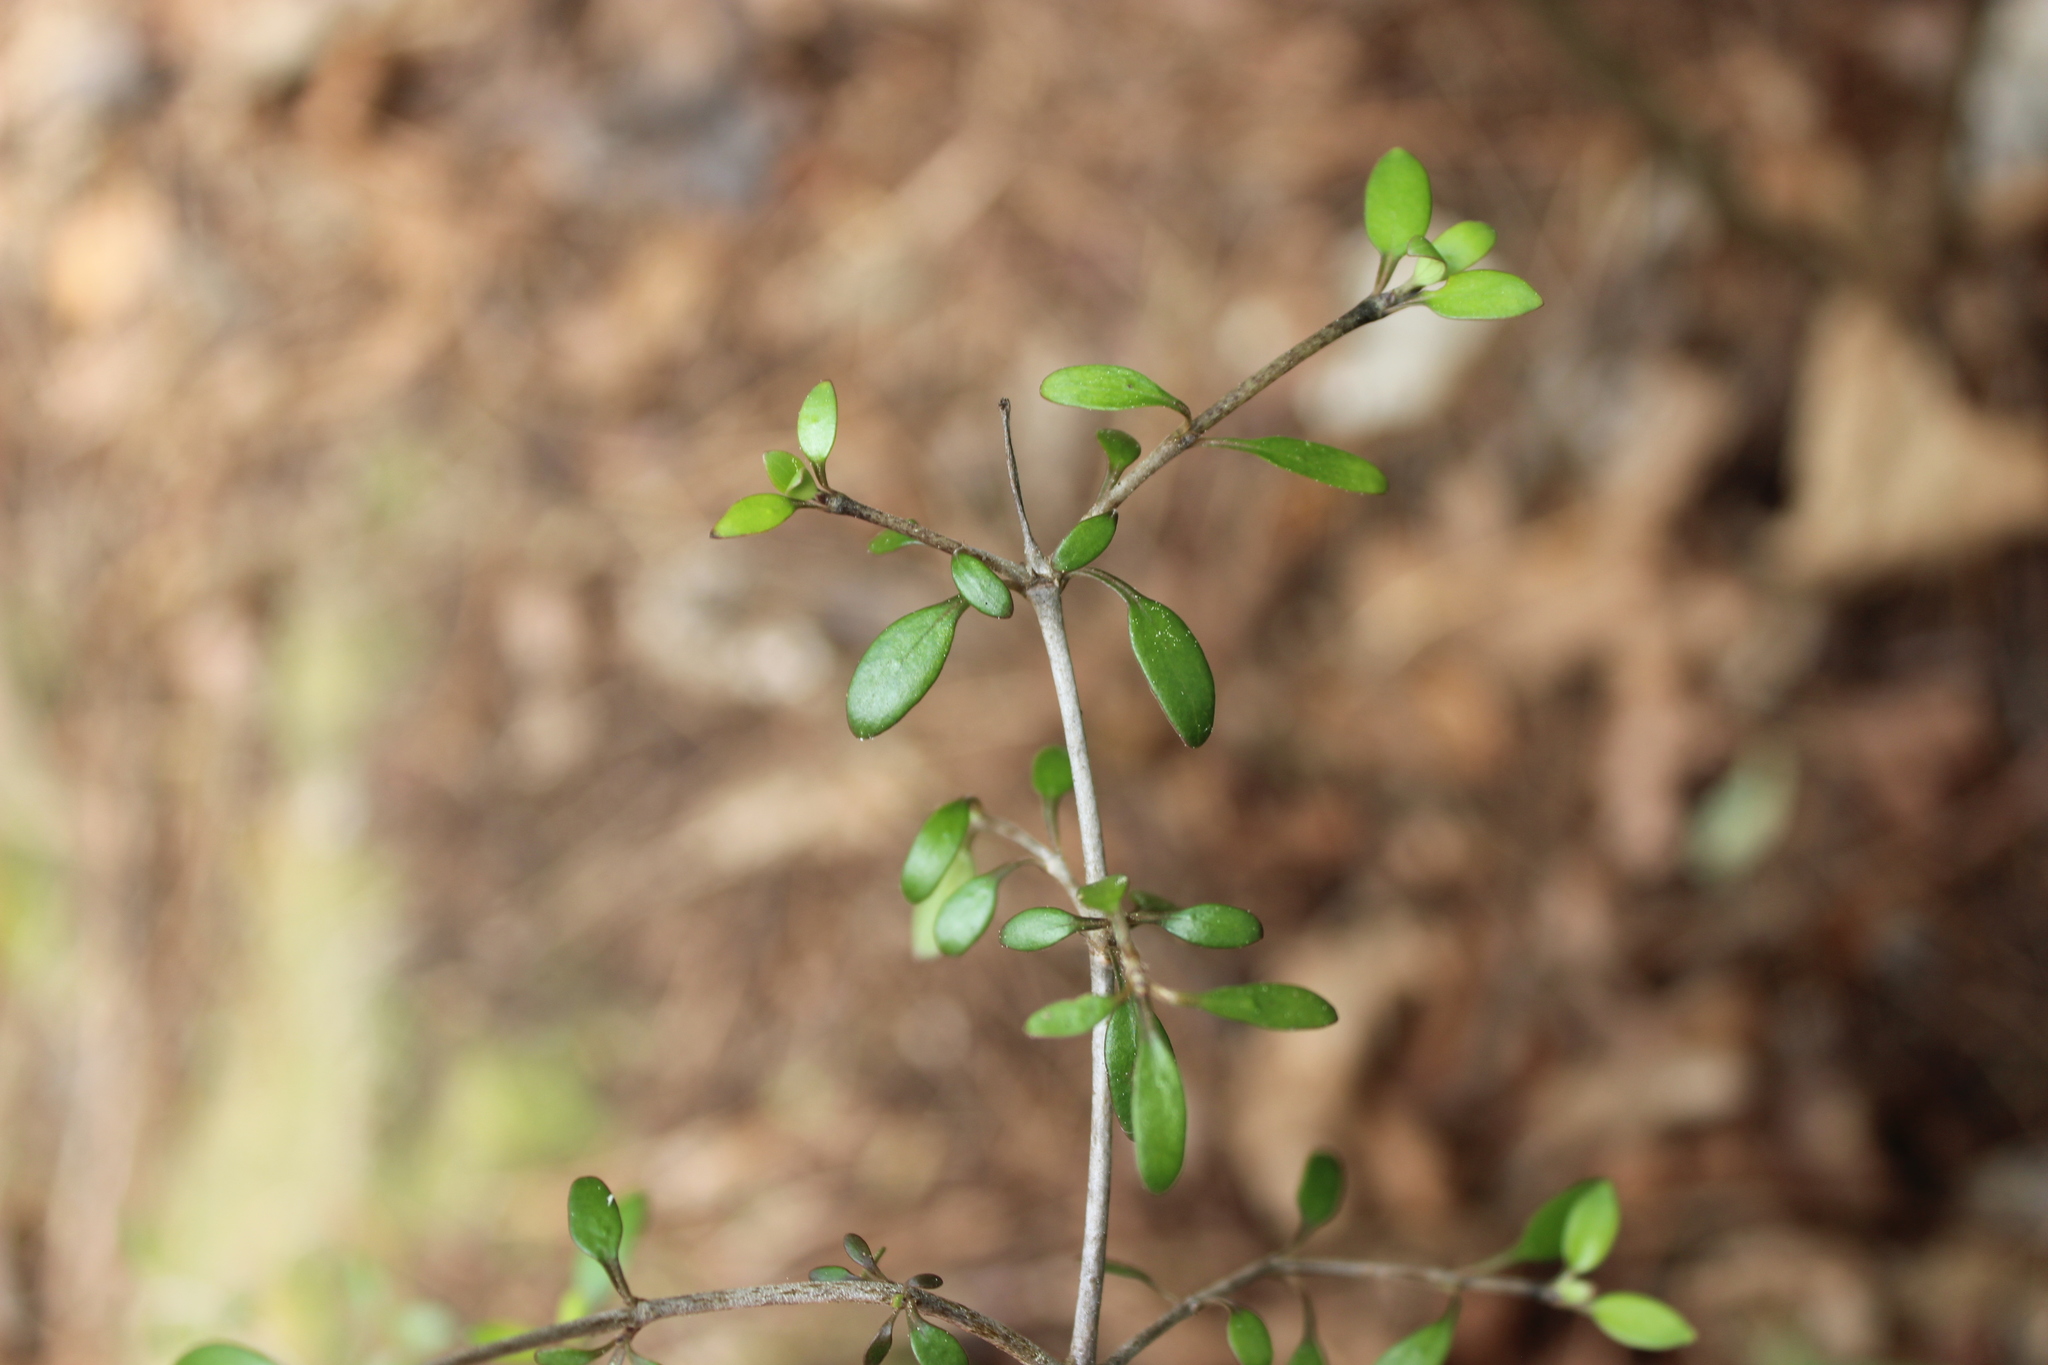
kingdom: Plantae
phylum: Tracheophyta
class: Magnoliopsida
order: Gentianales
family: Rubiaceae
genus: Coprosma
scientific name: Coprosma propinqua
